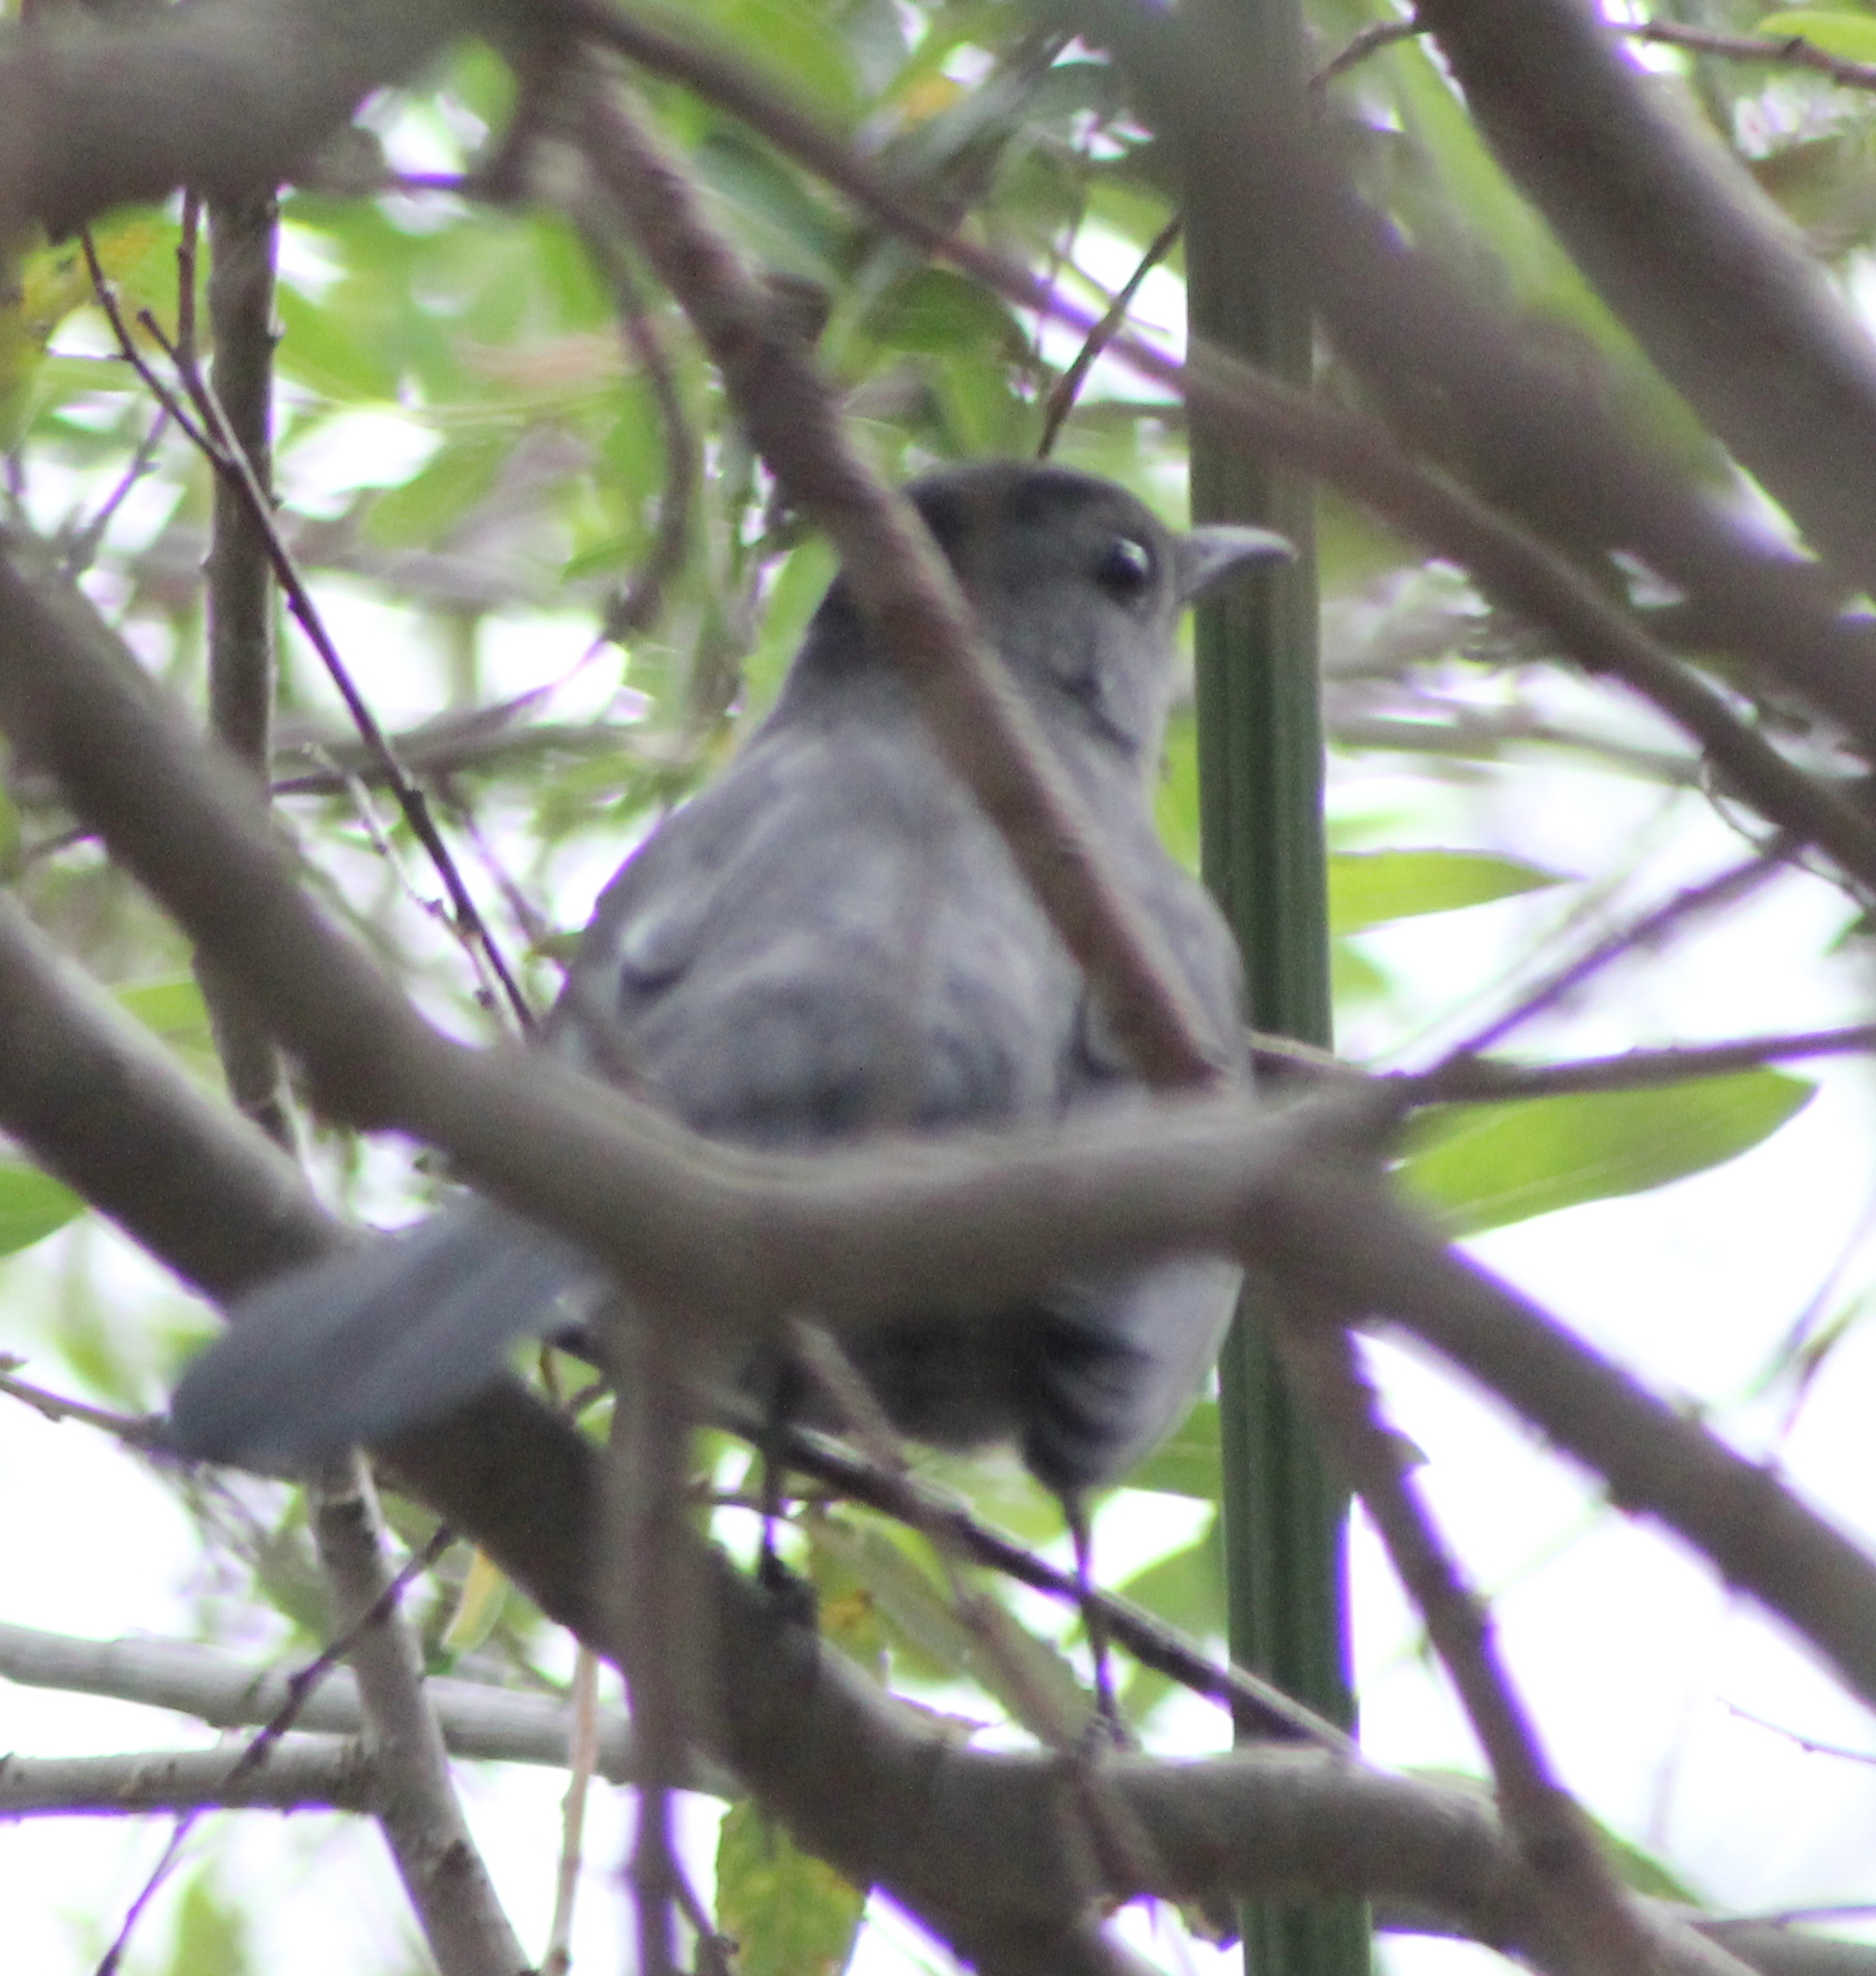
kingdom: Animalia
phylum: Chordata
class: Aves
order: Passeriformes
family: Mimidae
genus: Dumetella
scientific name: Dumetella carolinensis
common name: Gray catbird
